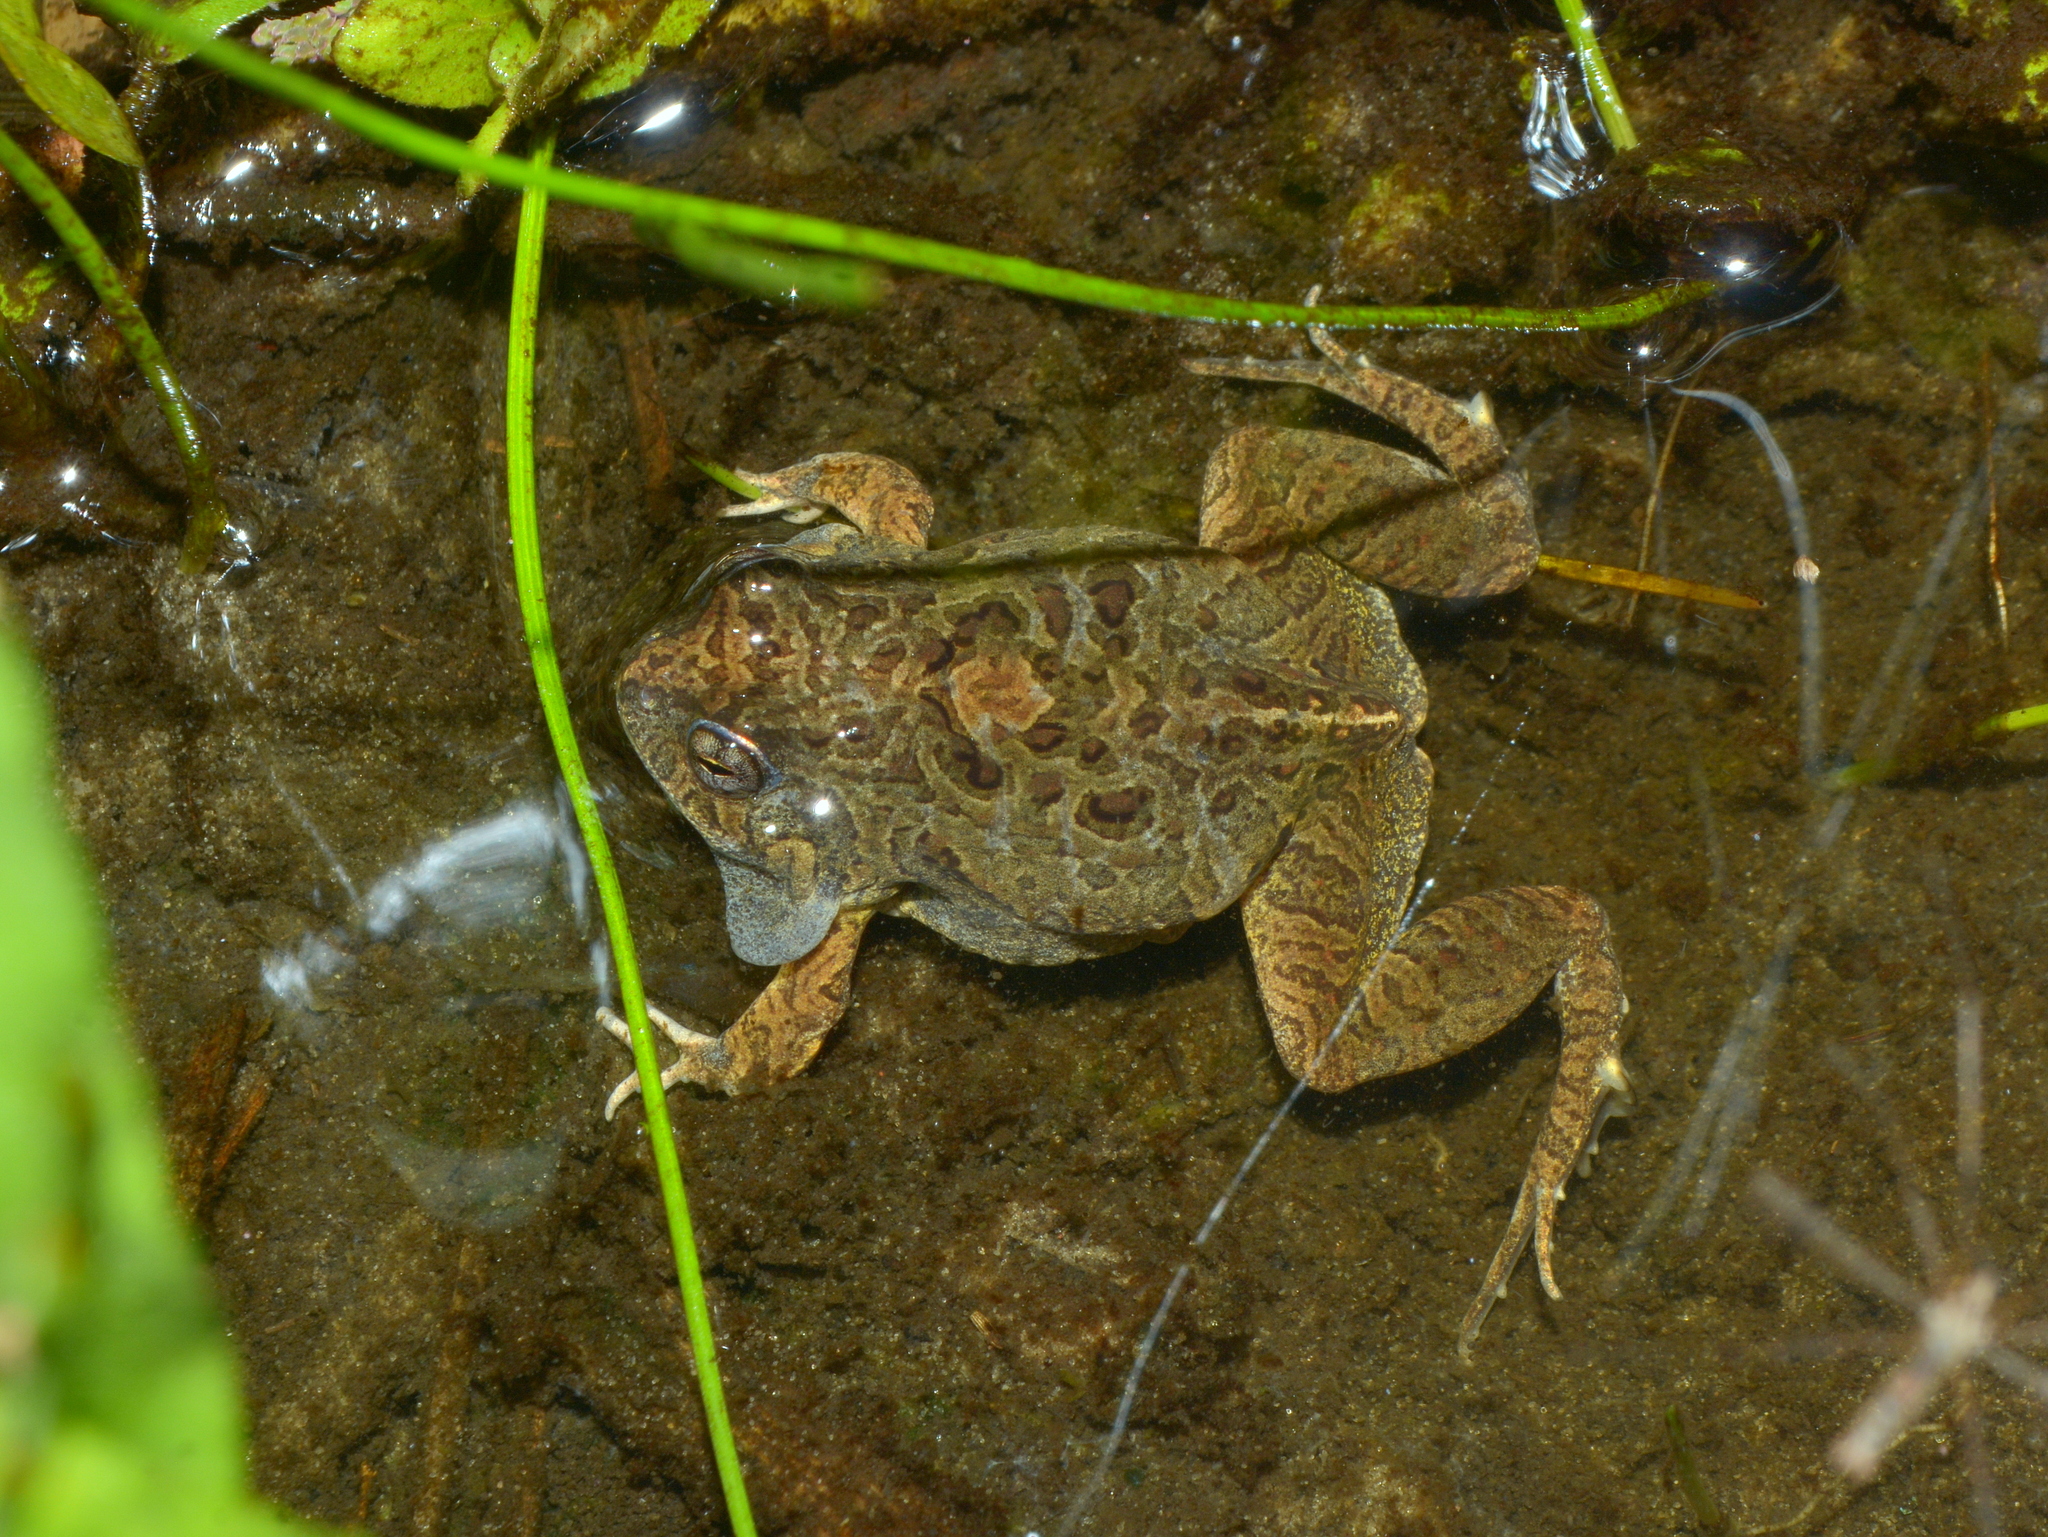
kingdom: Animalia
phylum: Chordata
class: Amphibia
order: Anura
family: Leptodactylidae
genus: Physalaemus
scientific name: Physalaemus biligonigerus
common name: Weeping frog
